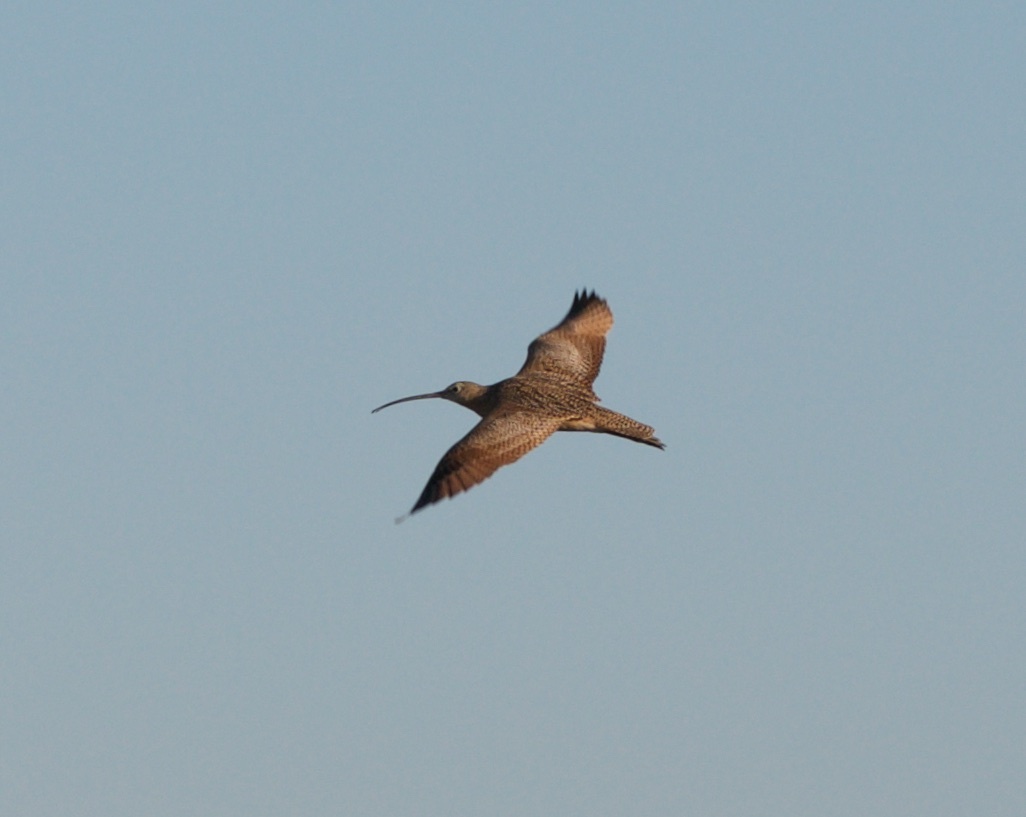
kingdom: Animalia
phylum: Chordata
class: Aves
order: Charadriiformes
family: Scolopacidae
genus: Numenius
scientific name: Numenius americanus
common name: Long-billed curlew
